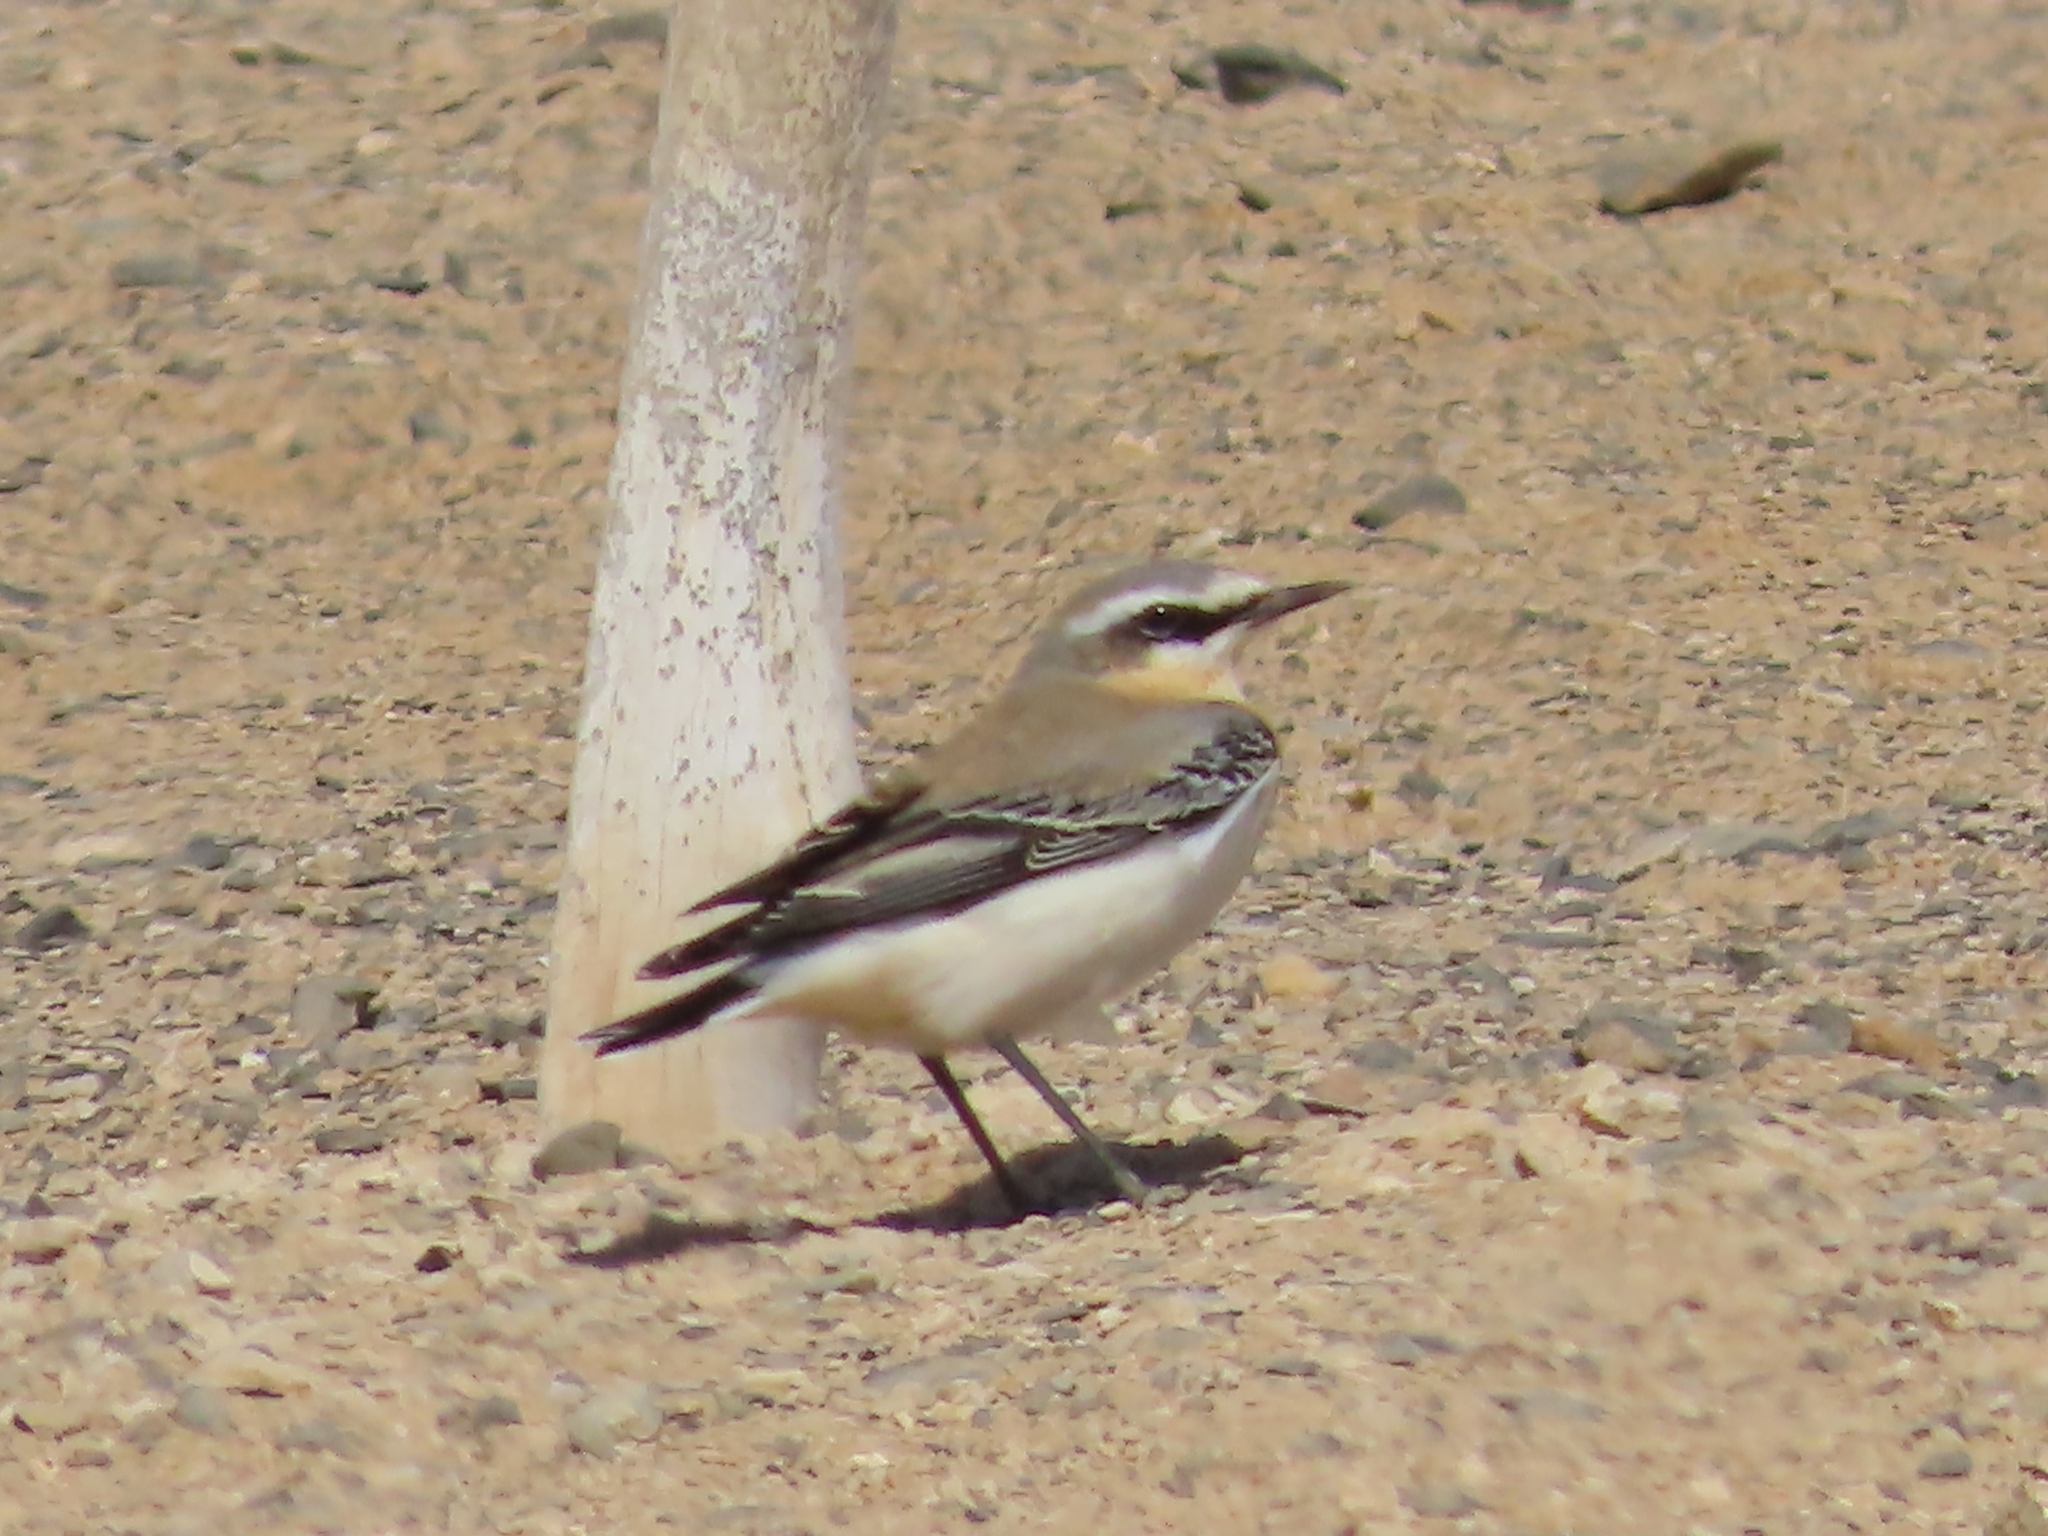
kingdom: Animalia
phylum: Chordata
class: Aves
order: Passeriformes
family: Muscicapidae
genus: Oenanthe
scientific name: Oenanthe oenanthe
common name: Northern wheatear
